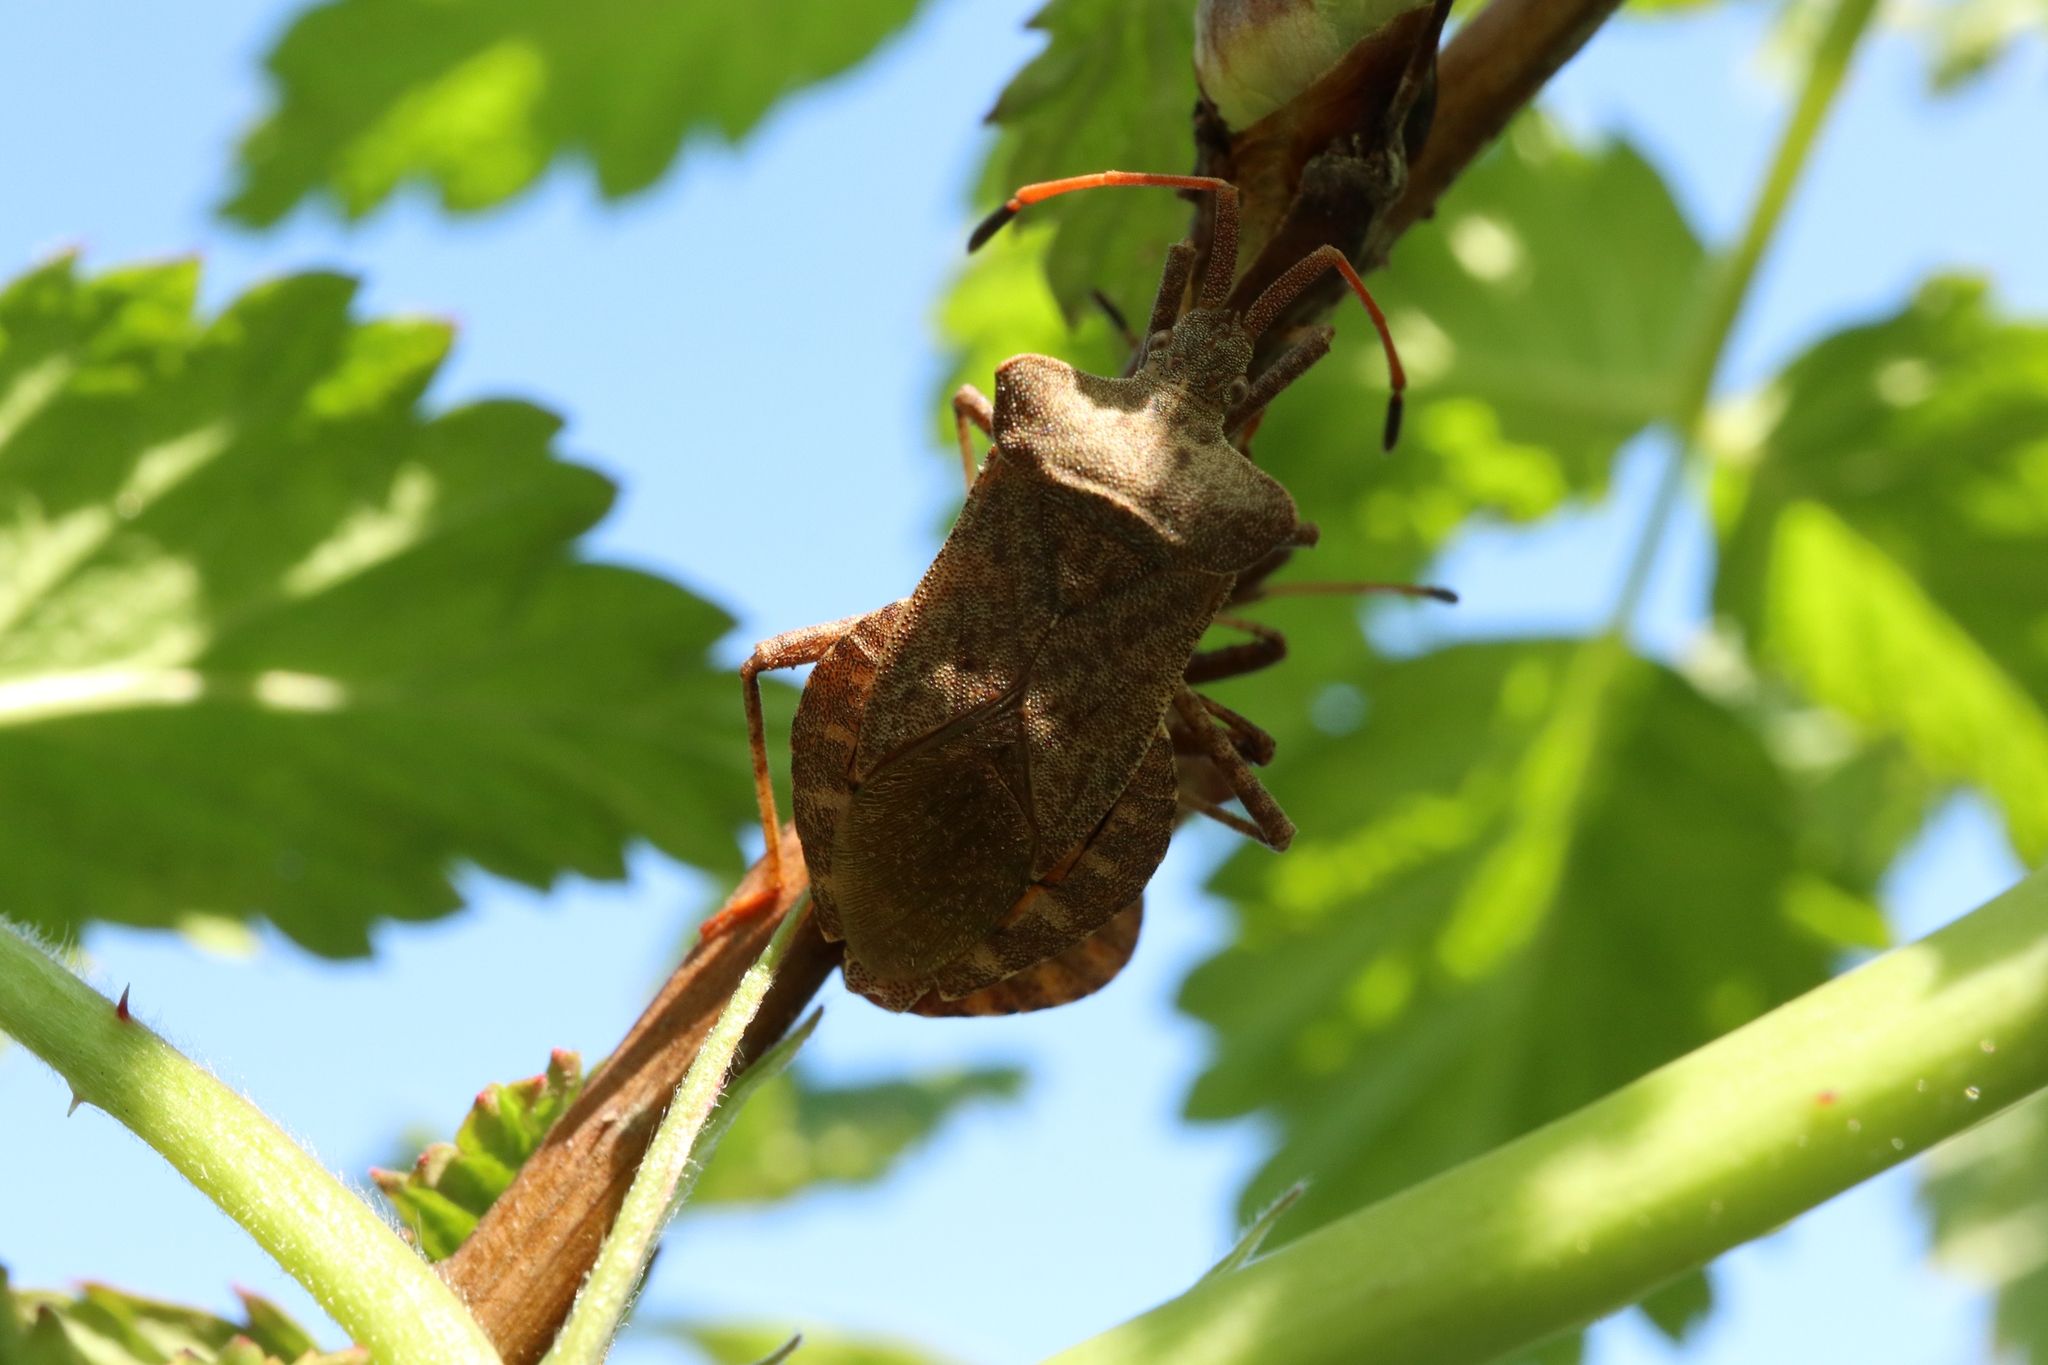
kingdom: Animalia
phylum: Arthropoda
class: Insecta
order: Hemiptera
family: Coreidae
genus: Coreus
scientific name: Coreus marginatus
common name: Dock bug
